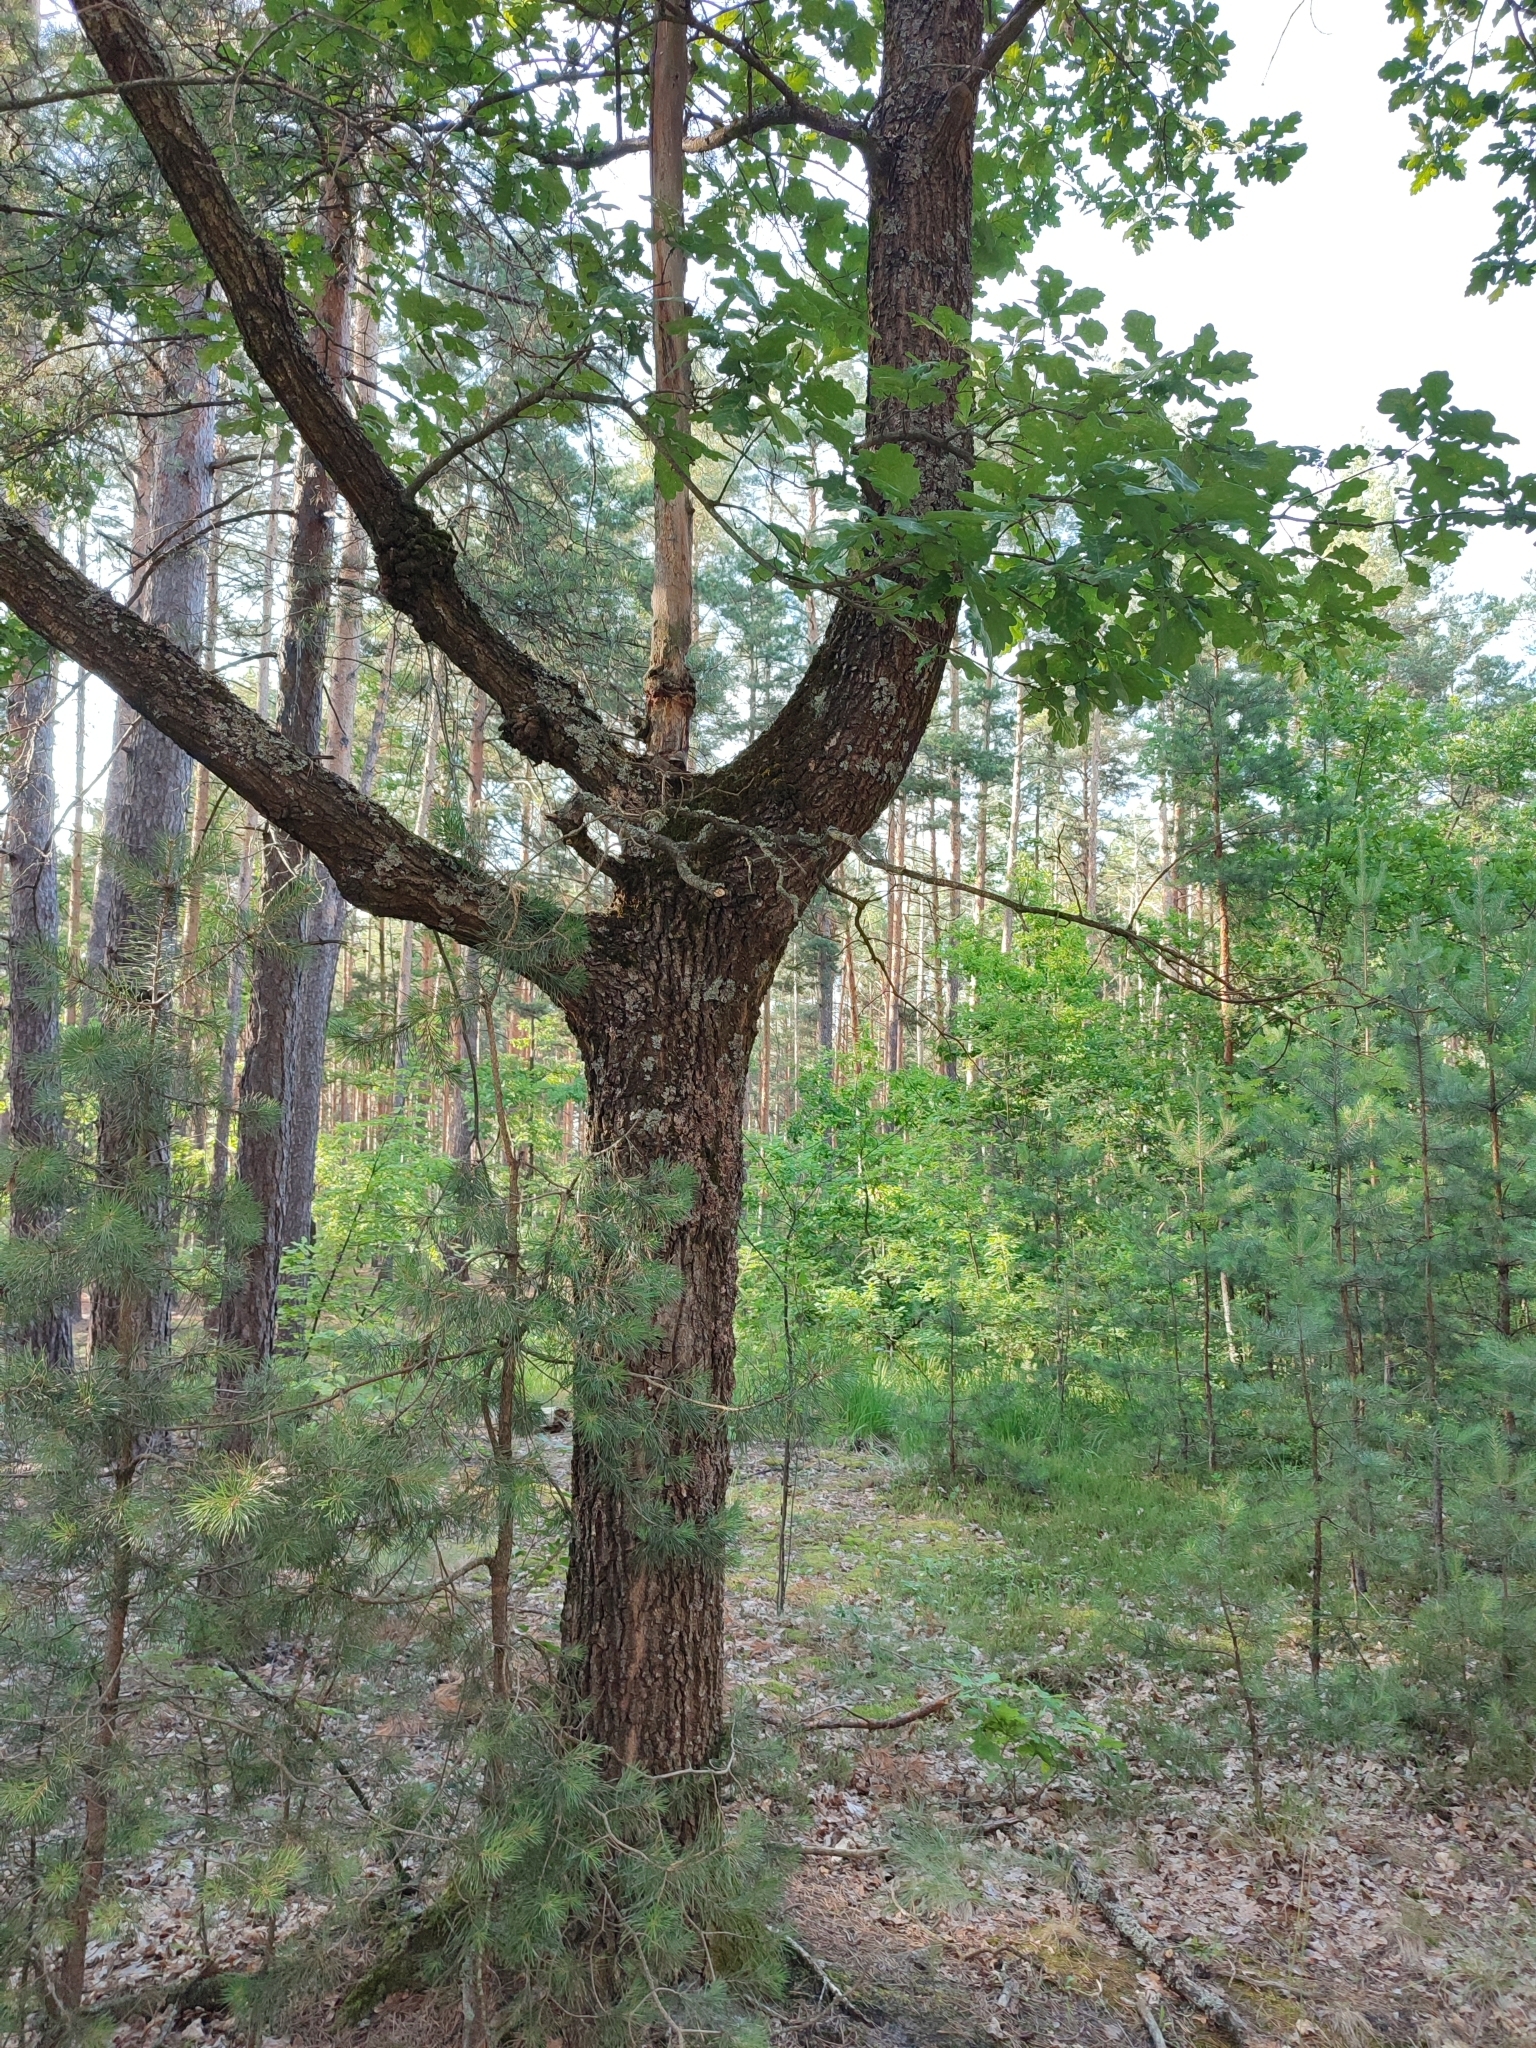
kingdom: Plantae
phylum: Tracheophyta
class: Magnoliopsida
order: Fagales
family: Fagaceae
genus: Quercus
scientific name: Quercus robur
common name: Pedunculate oak
